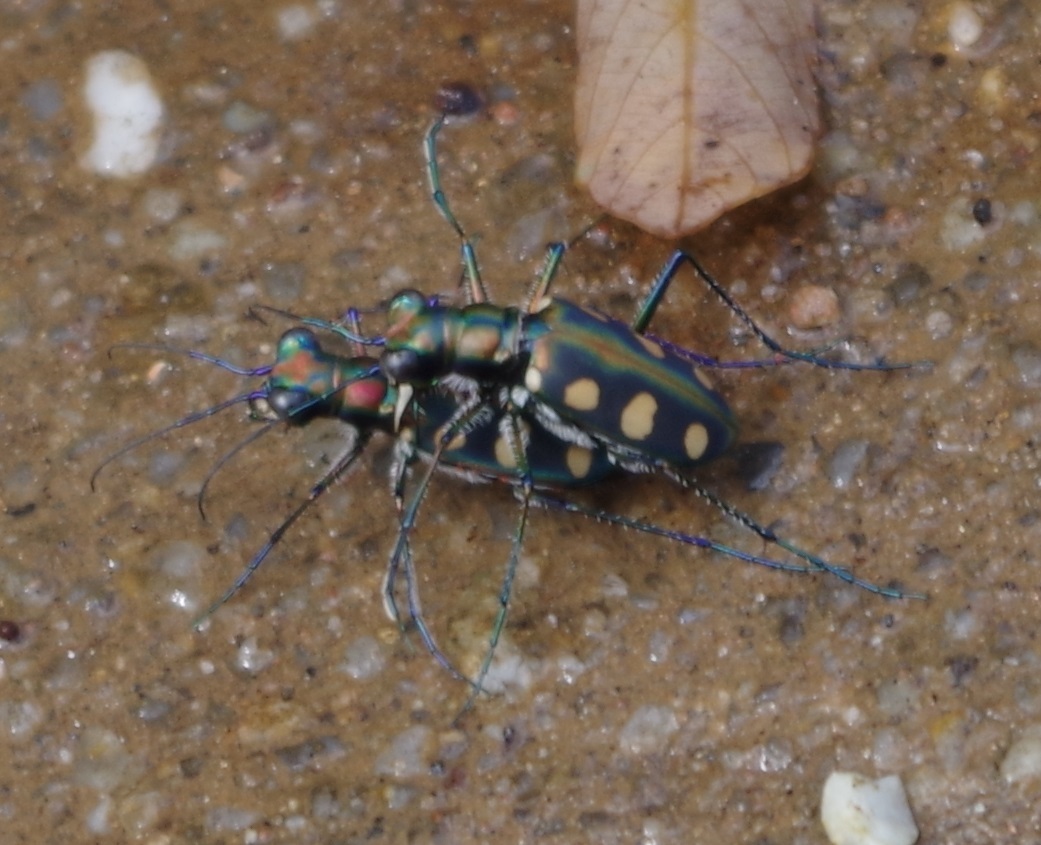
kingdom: Animalia
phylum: Arthropoda
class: Insecta
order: Coleoptera
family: Carabidae
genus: Cicindela
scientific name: Cicindela aurulenta
